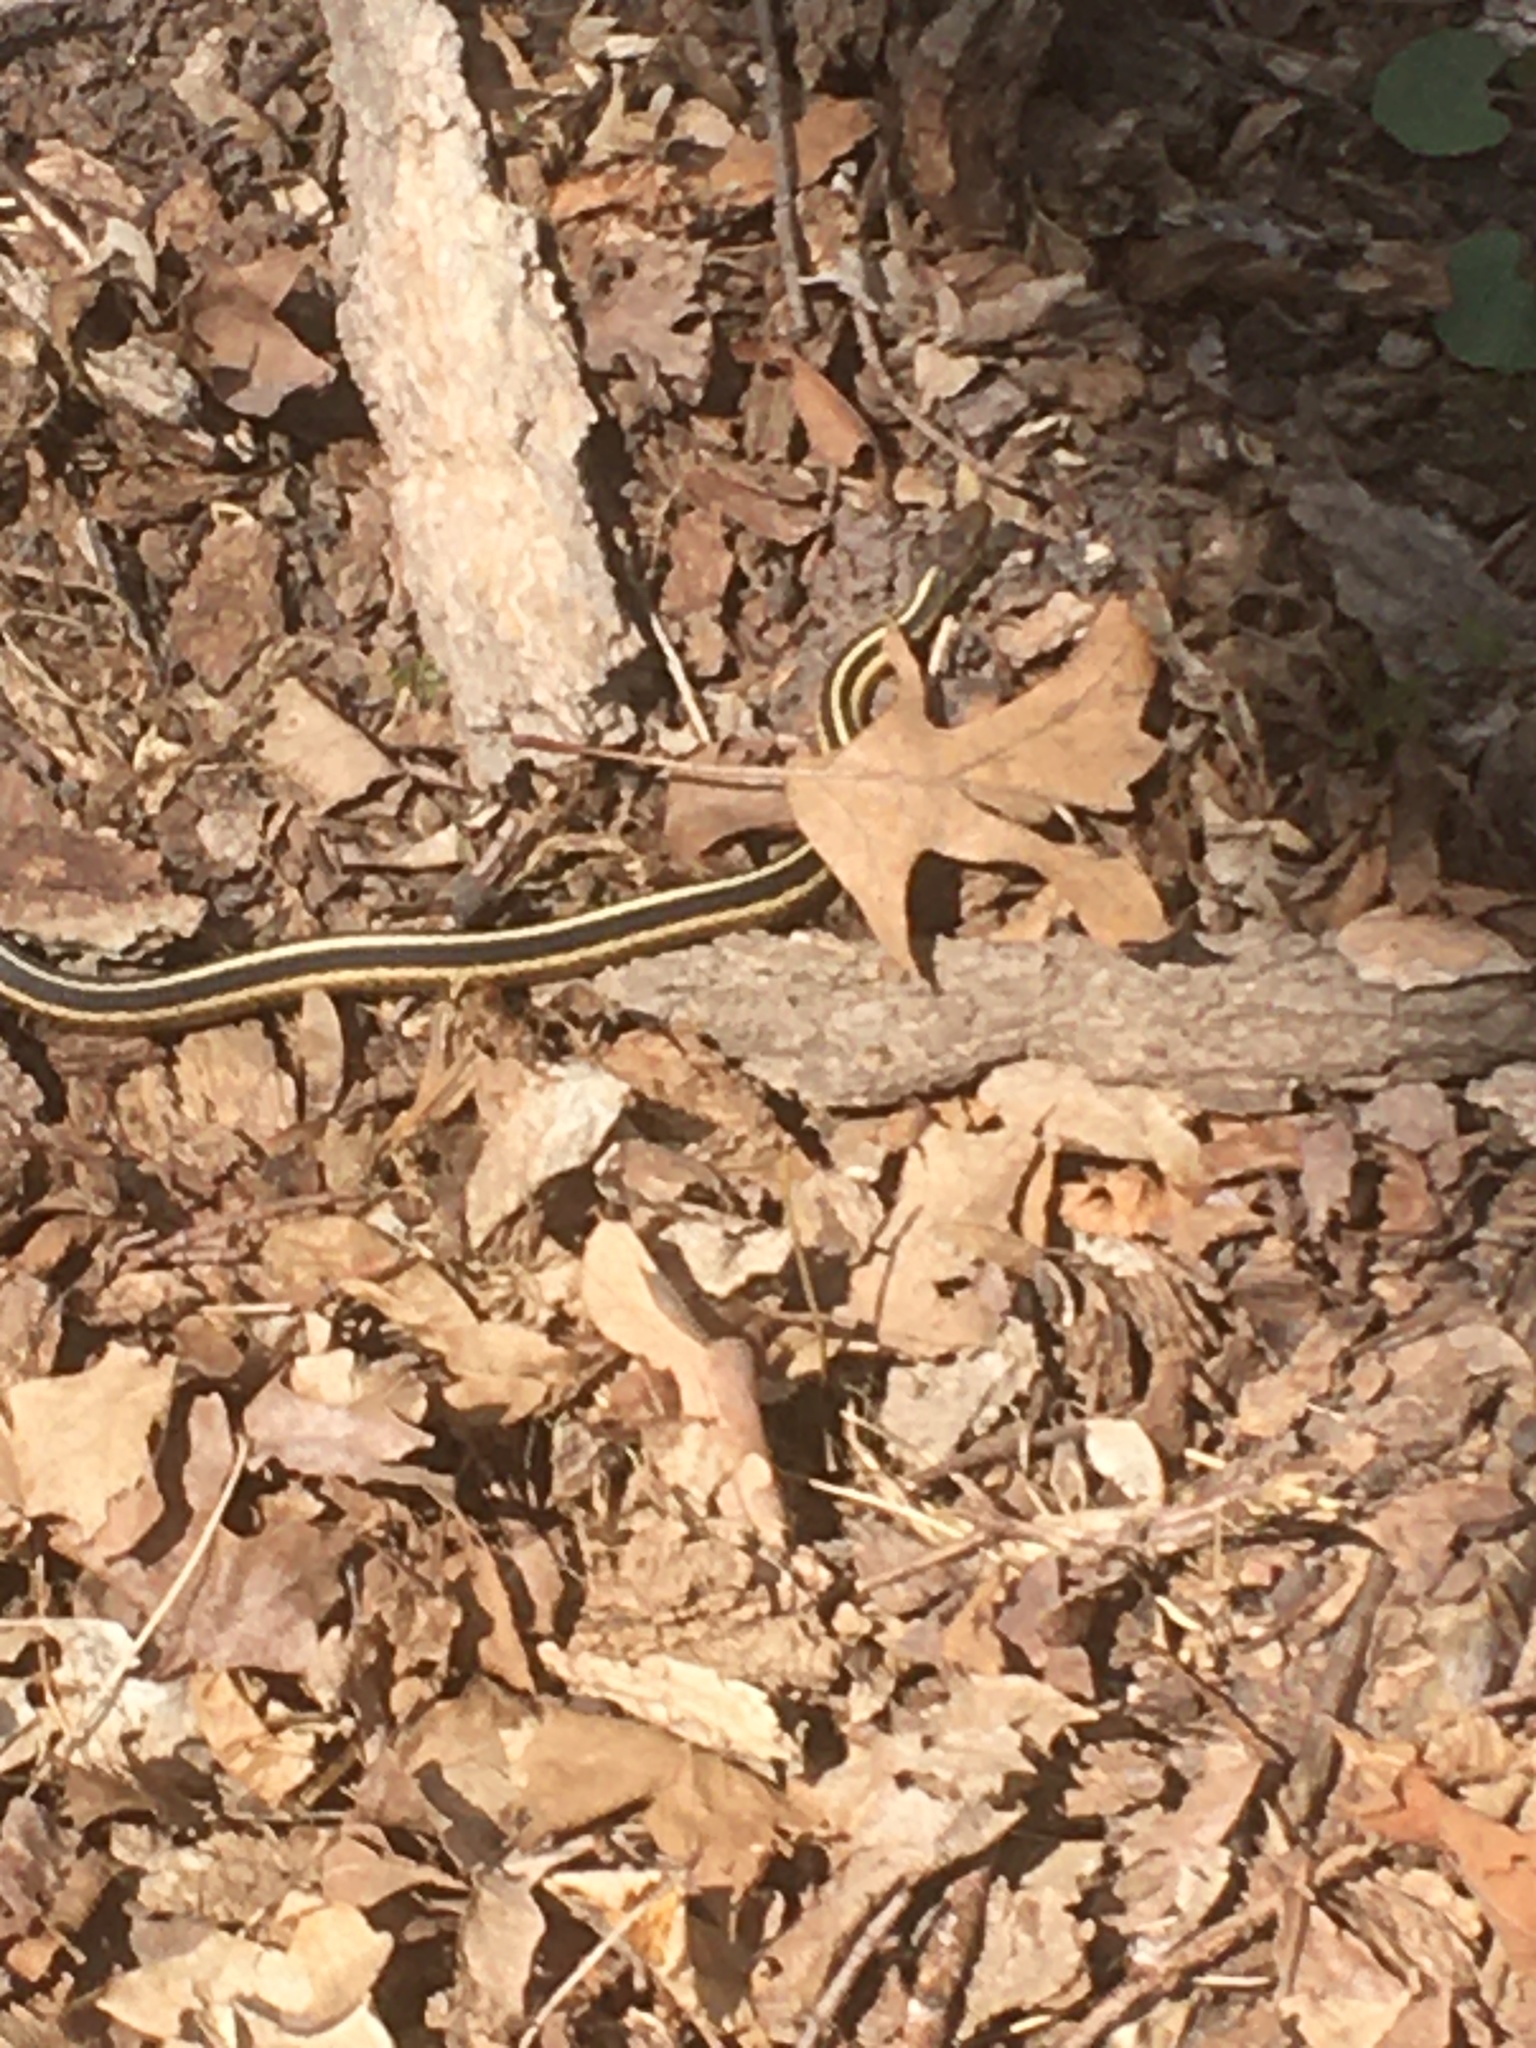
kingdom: Animalia
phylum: Chordata
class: Squamata
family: Colubridae
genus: Thamnophis
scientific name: Thamnophis sirtalis
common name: Common garter snake
